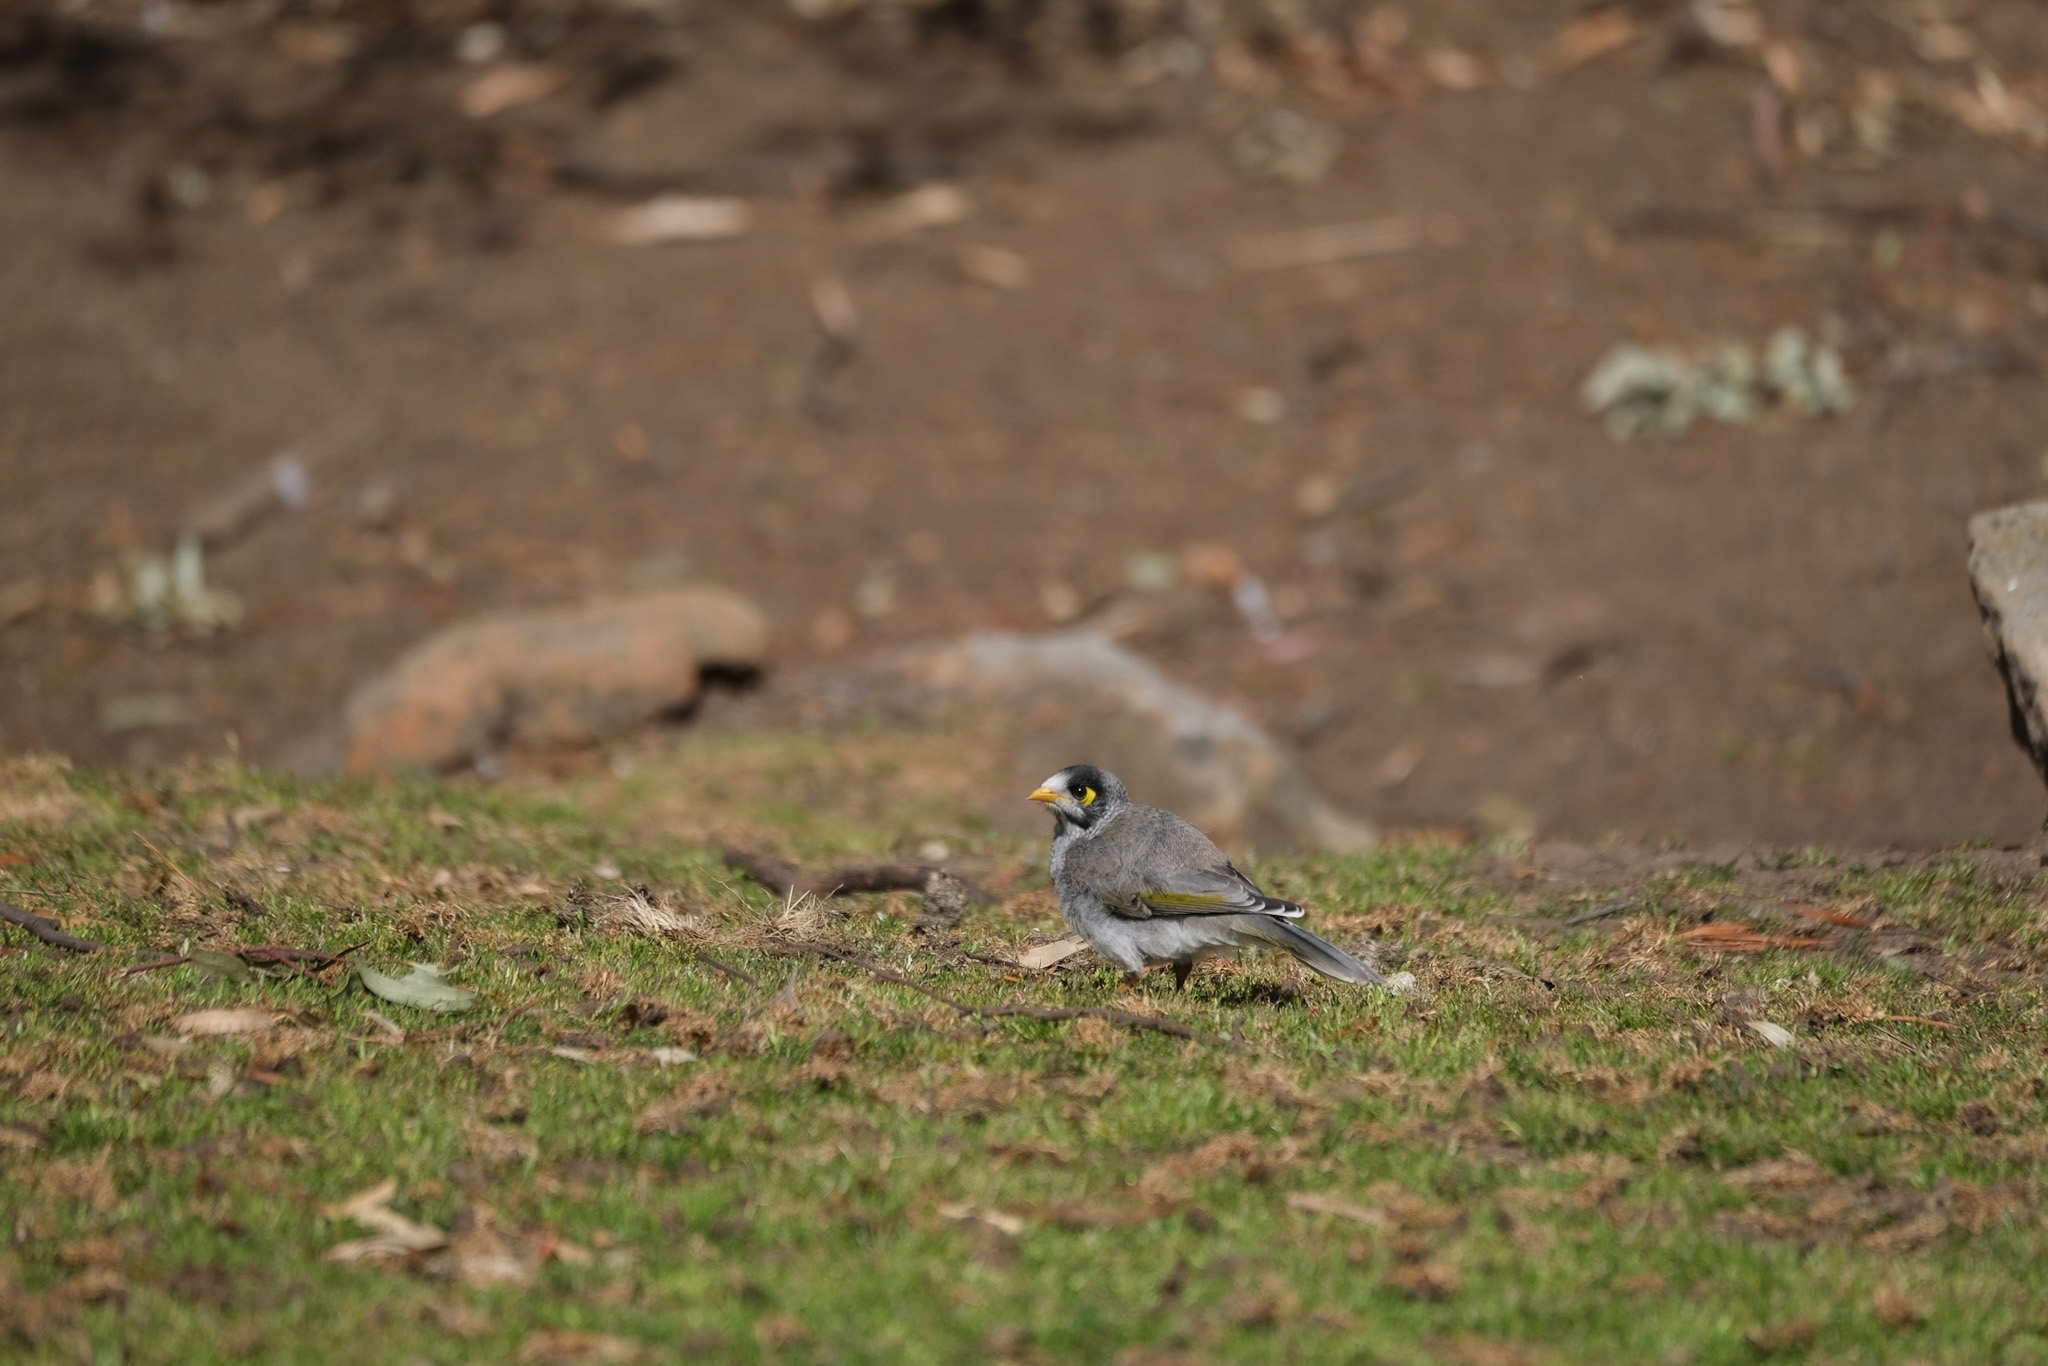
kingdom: Animalia
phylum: Chordata
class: Aves
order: Passeriformes
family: Meliphagidae
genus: Manorina
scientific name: Manorina melanocephala
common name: Noisy miner
